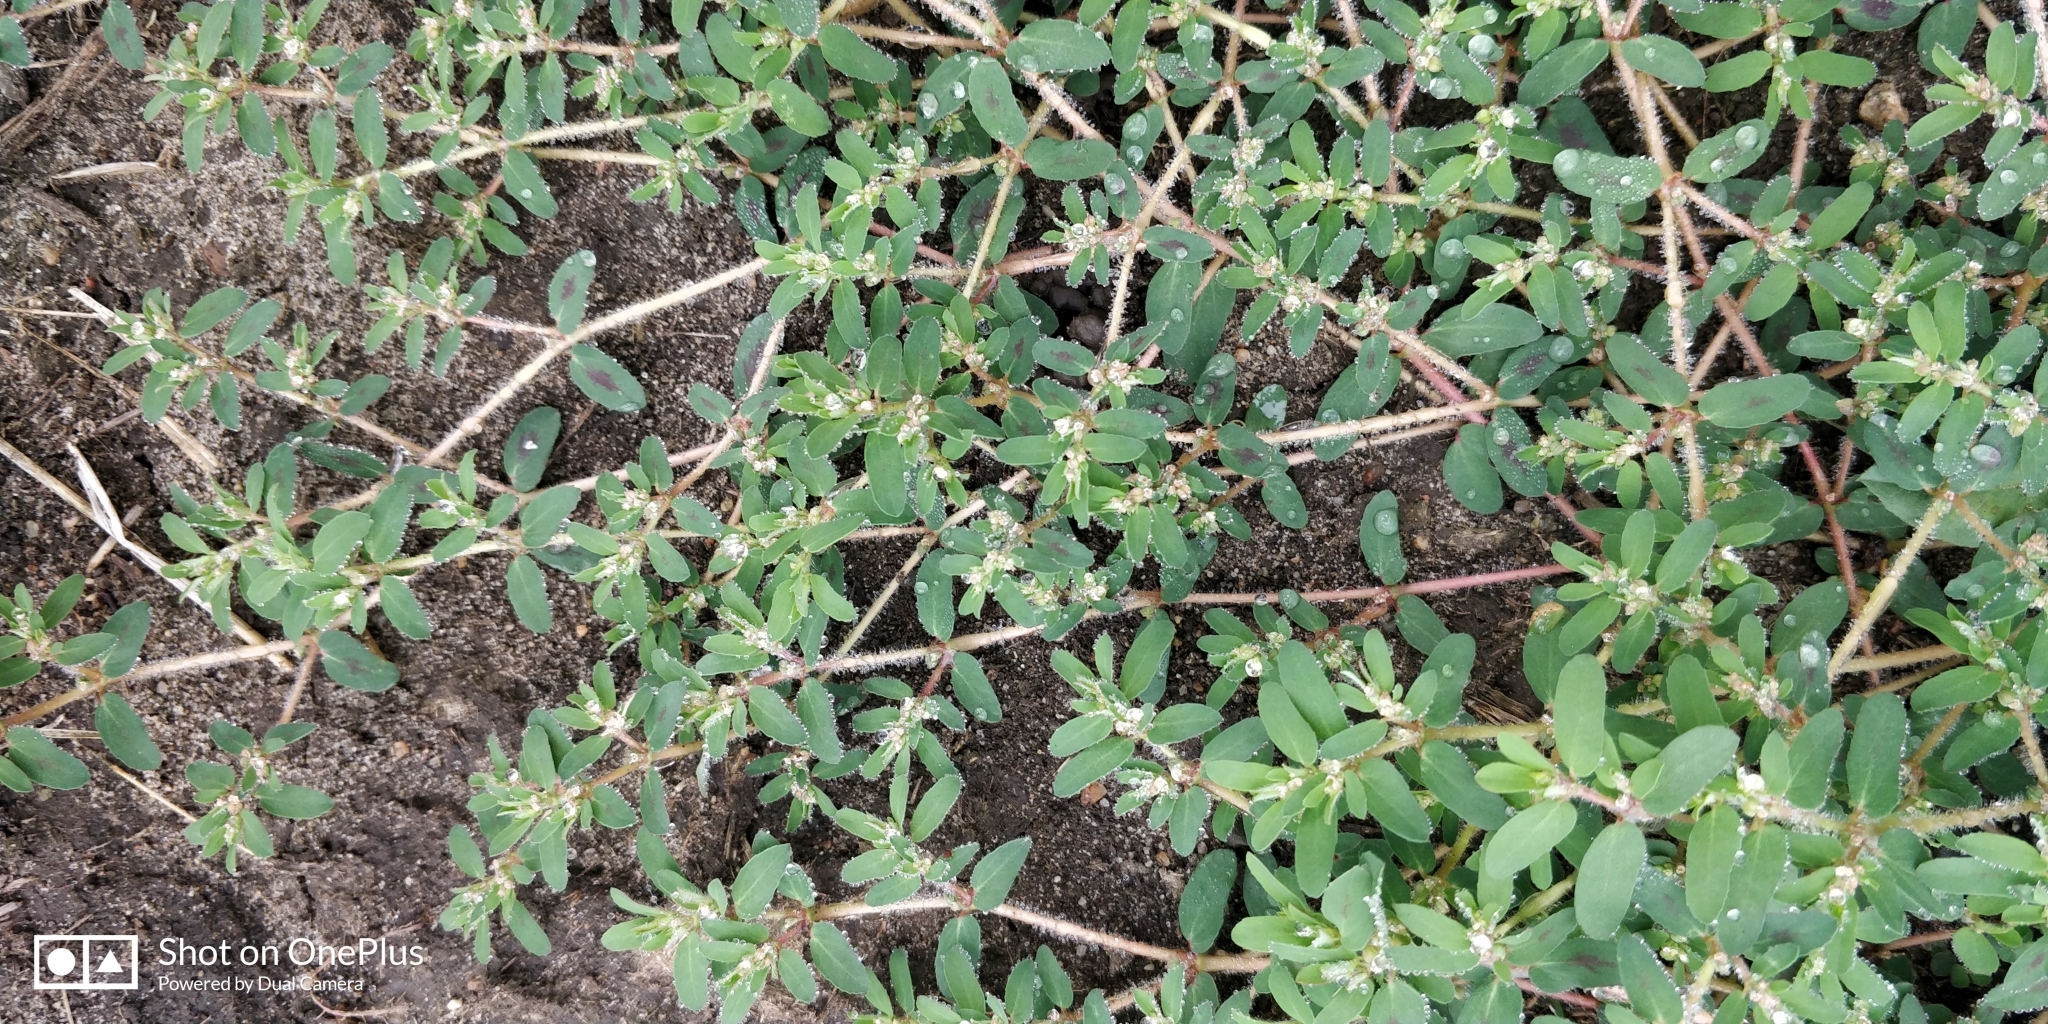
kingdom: Plantae
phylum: Tracheophyta
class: Magnoliopsida
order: Malpighiales
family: Euphorbiaceae
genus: Euphorbia
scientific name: Euphorbia maculata
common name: Spotted spurge
